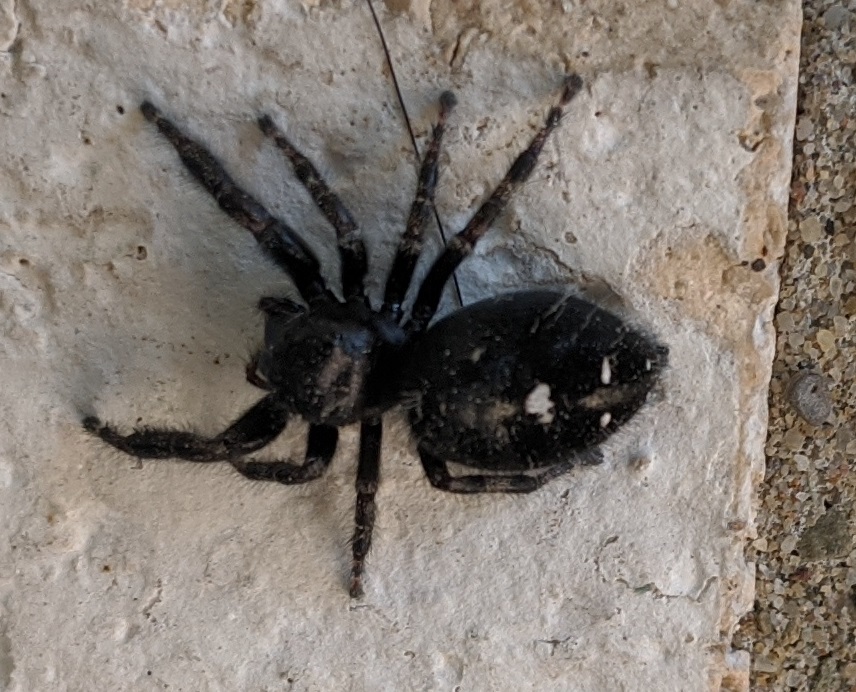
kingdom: Animalia
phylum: Arthropoda
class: Arachnida
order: Araneae
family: Salticidae
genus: Phidippus
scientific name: Phidippus audax
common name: Bold jumper
